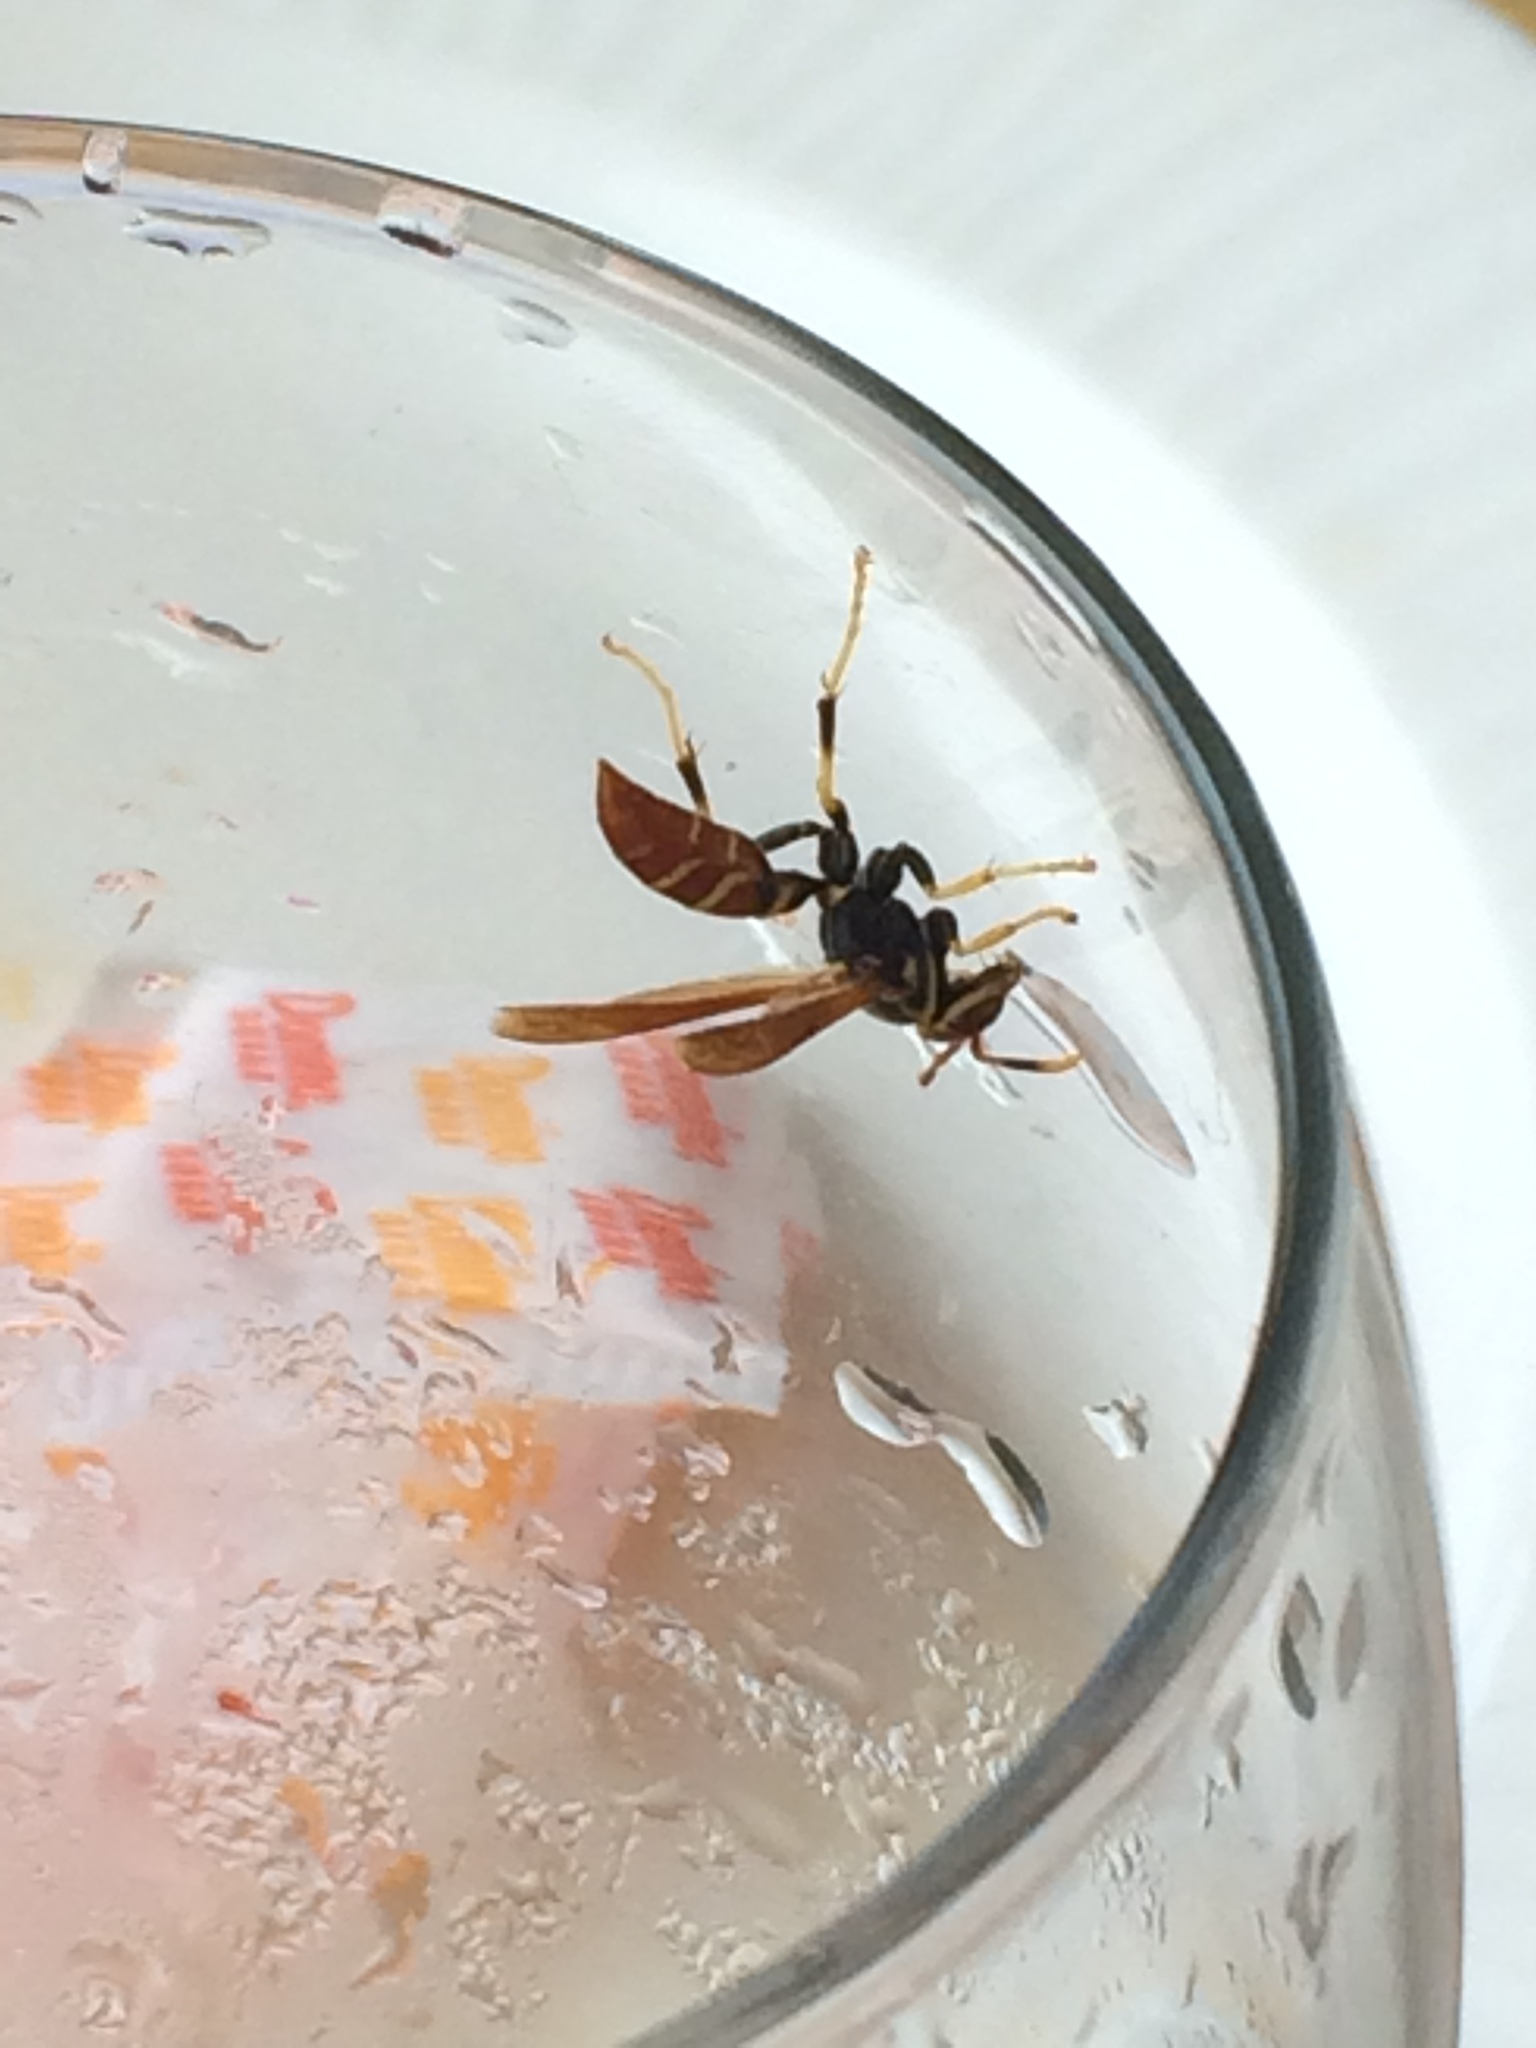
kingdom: Animalia
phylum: Arthropoda
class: Insecta
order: Hymenoptera
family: Eumenidae
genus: Polistes
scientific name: Polistes crinitus
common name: Jack spaniard
